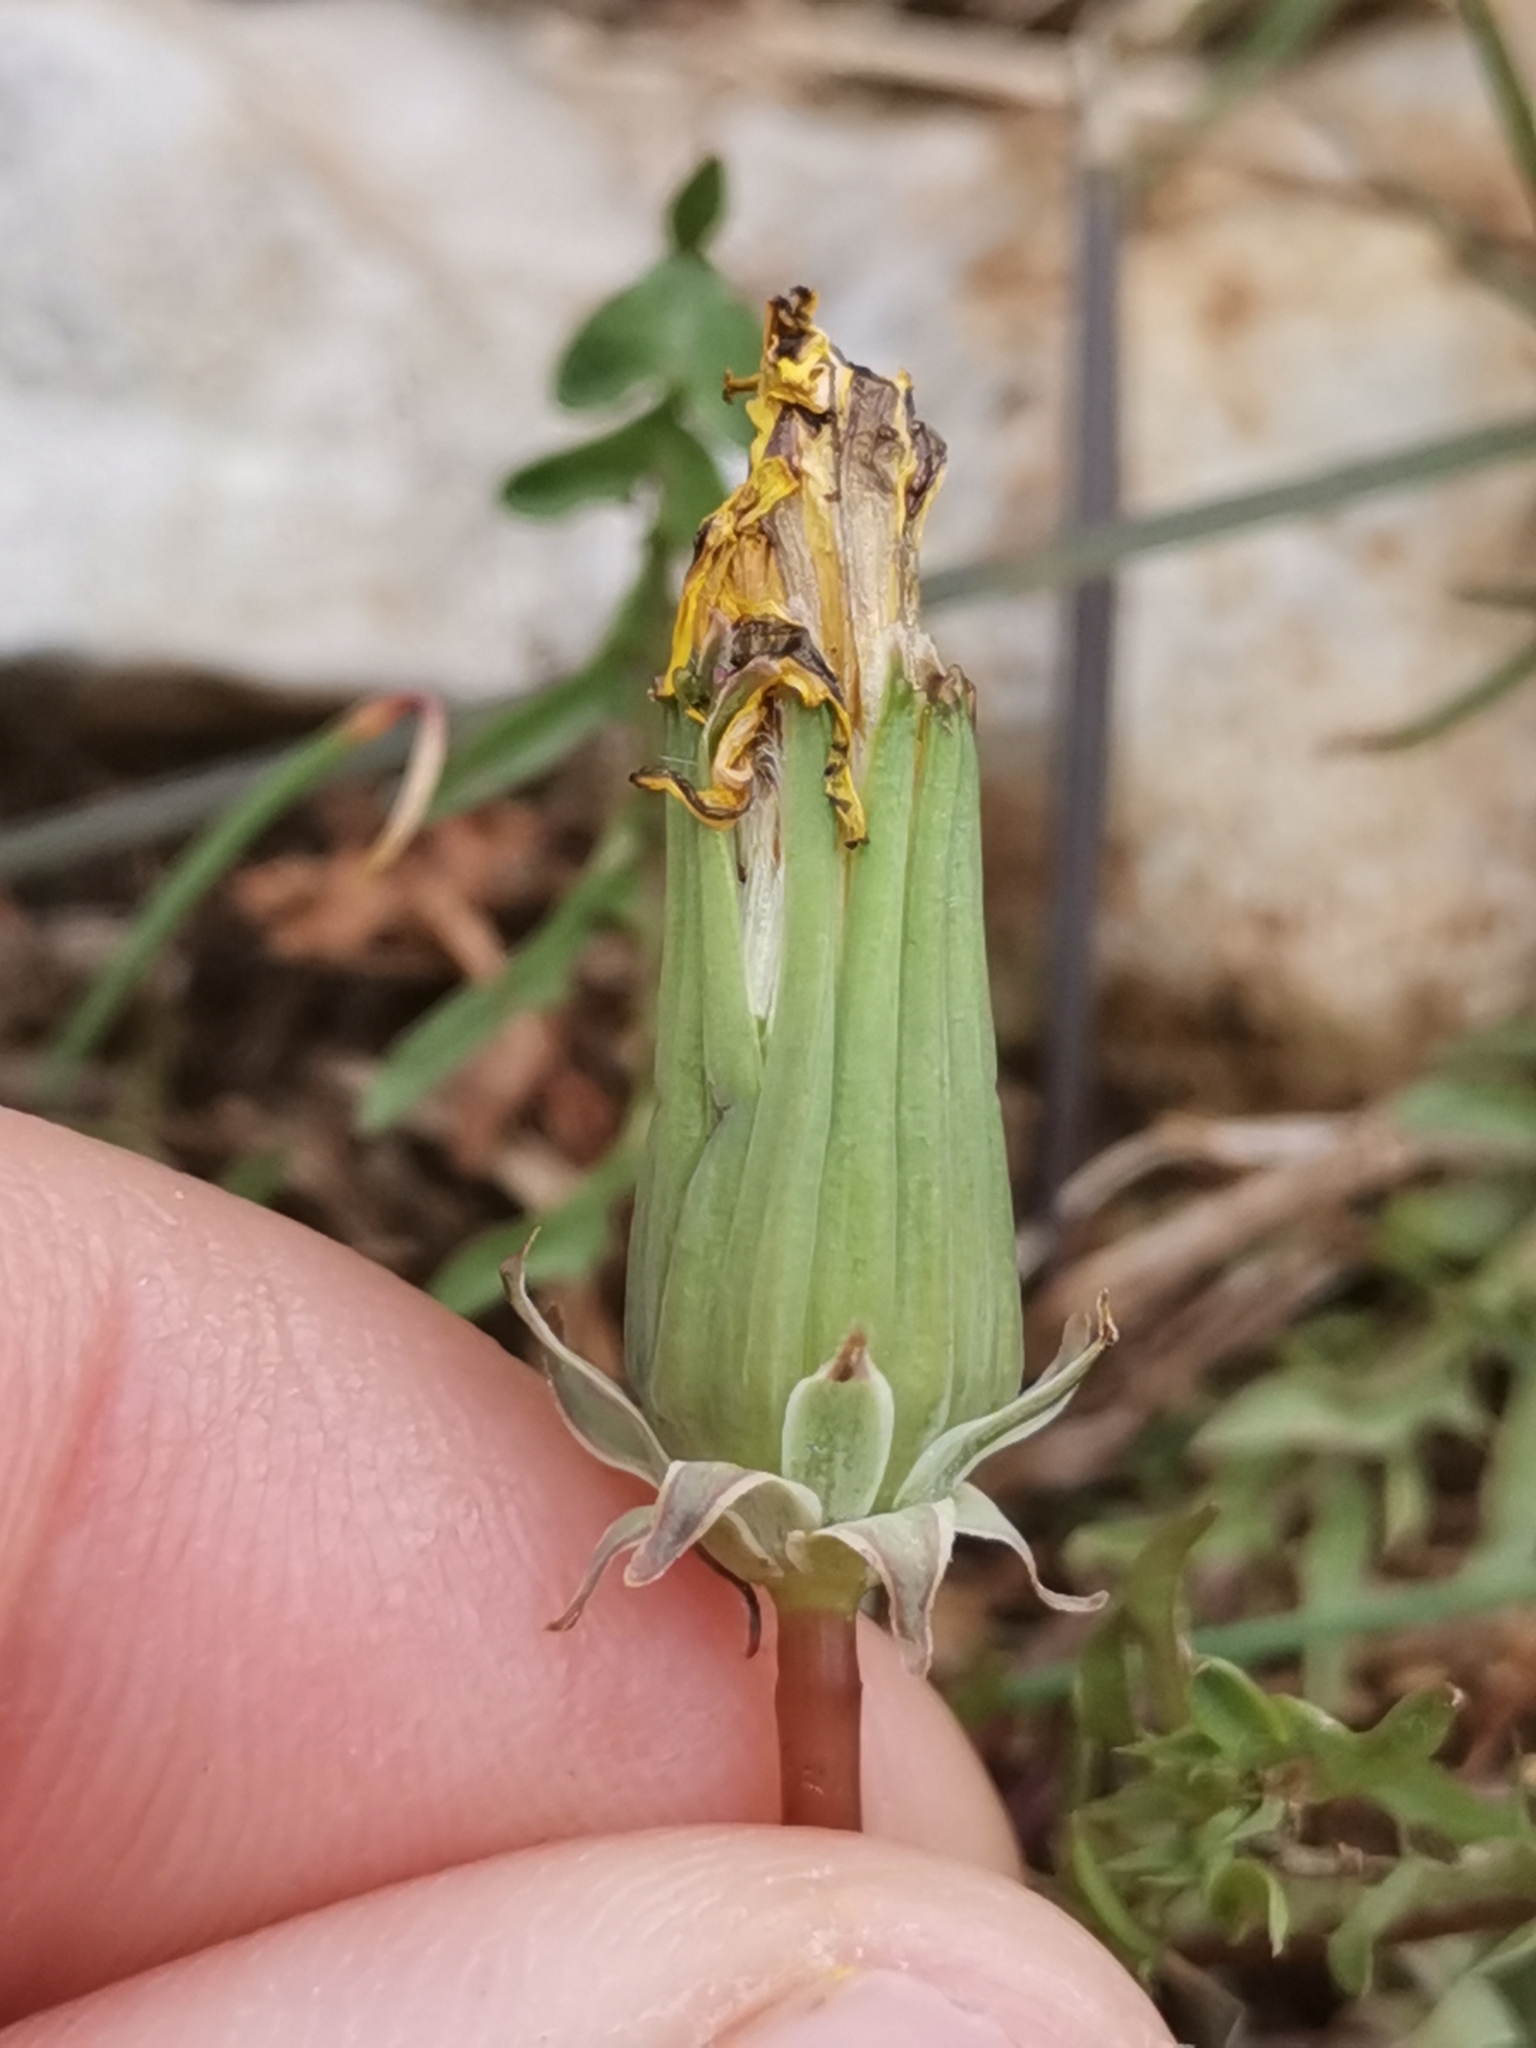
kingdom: Plantae
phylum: Tracheophyta
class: Magnoliopsida
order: Asterales
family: Asteraceae
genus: Taraxacum
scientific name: Taraxacum erythrospermum
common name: Rock dandelion
